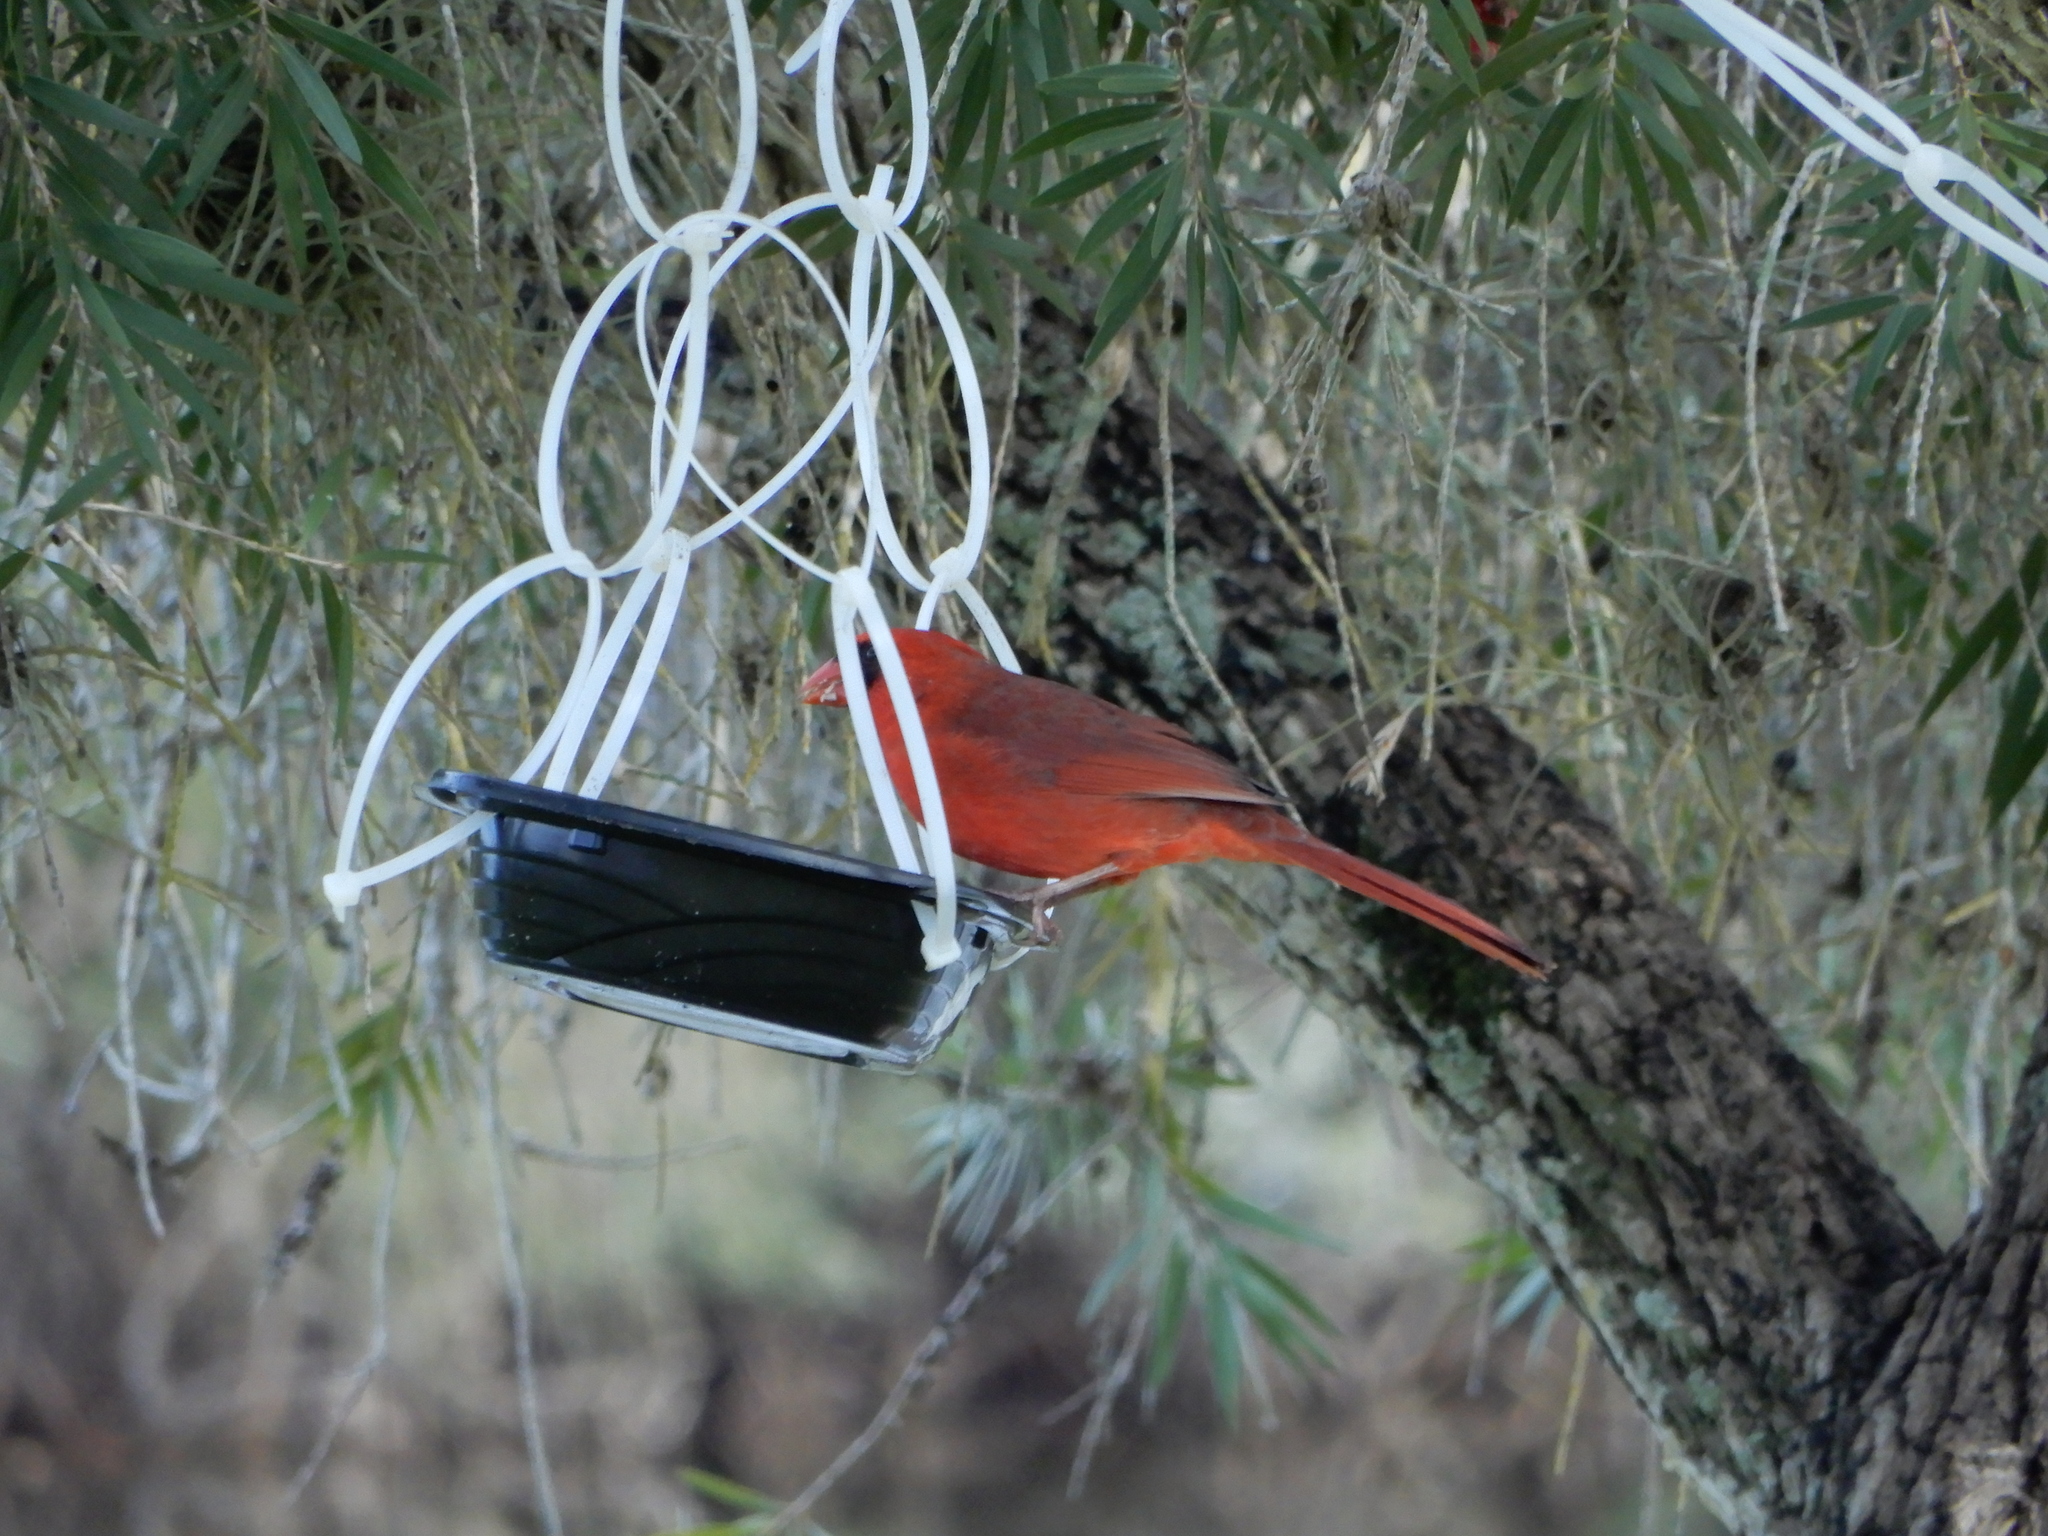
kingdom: Animalia
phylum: Chordata
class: Aves
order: Passeriformes
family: Cardinalidae
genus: Cardinalis
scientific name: Cardinalis cardinalis
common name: Northern cardinal
